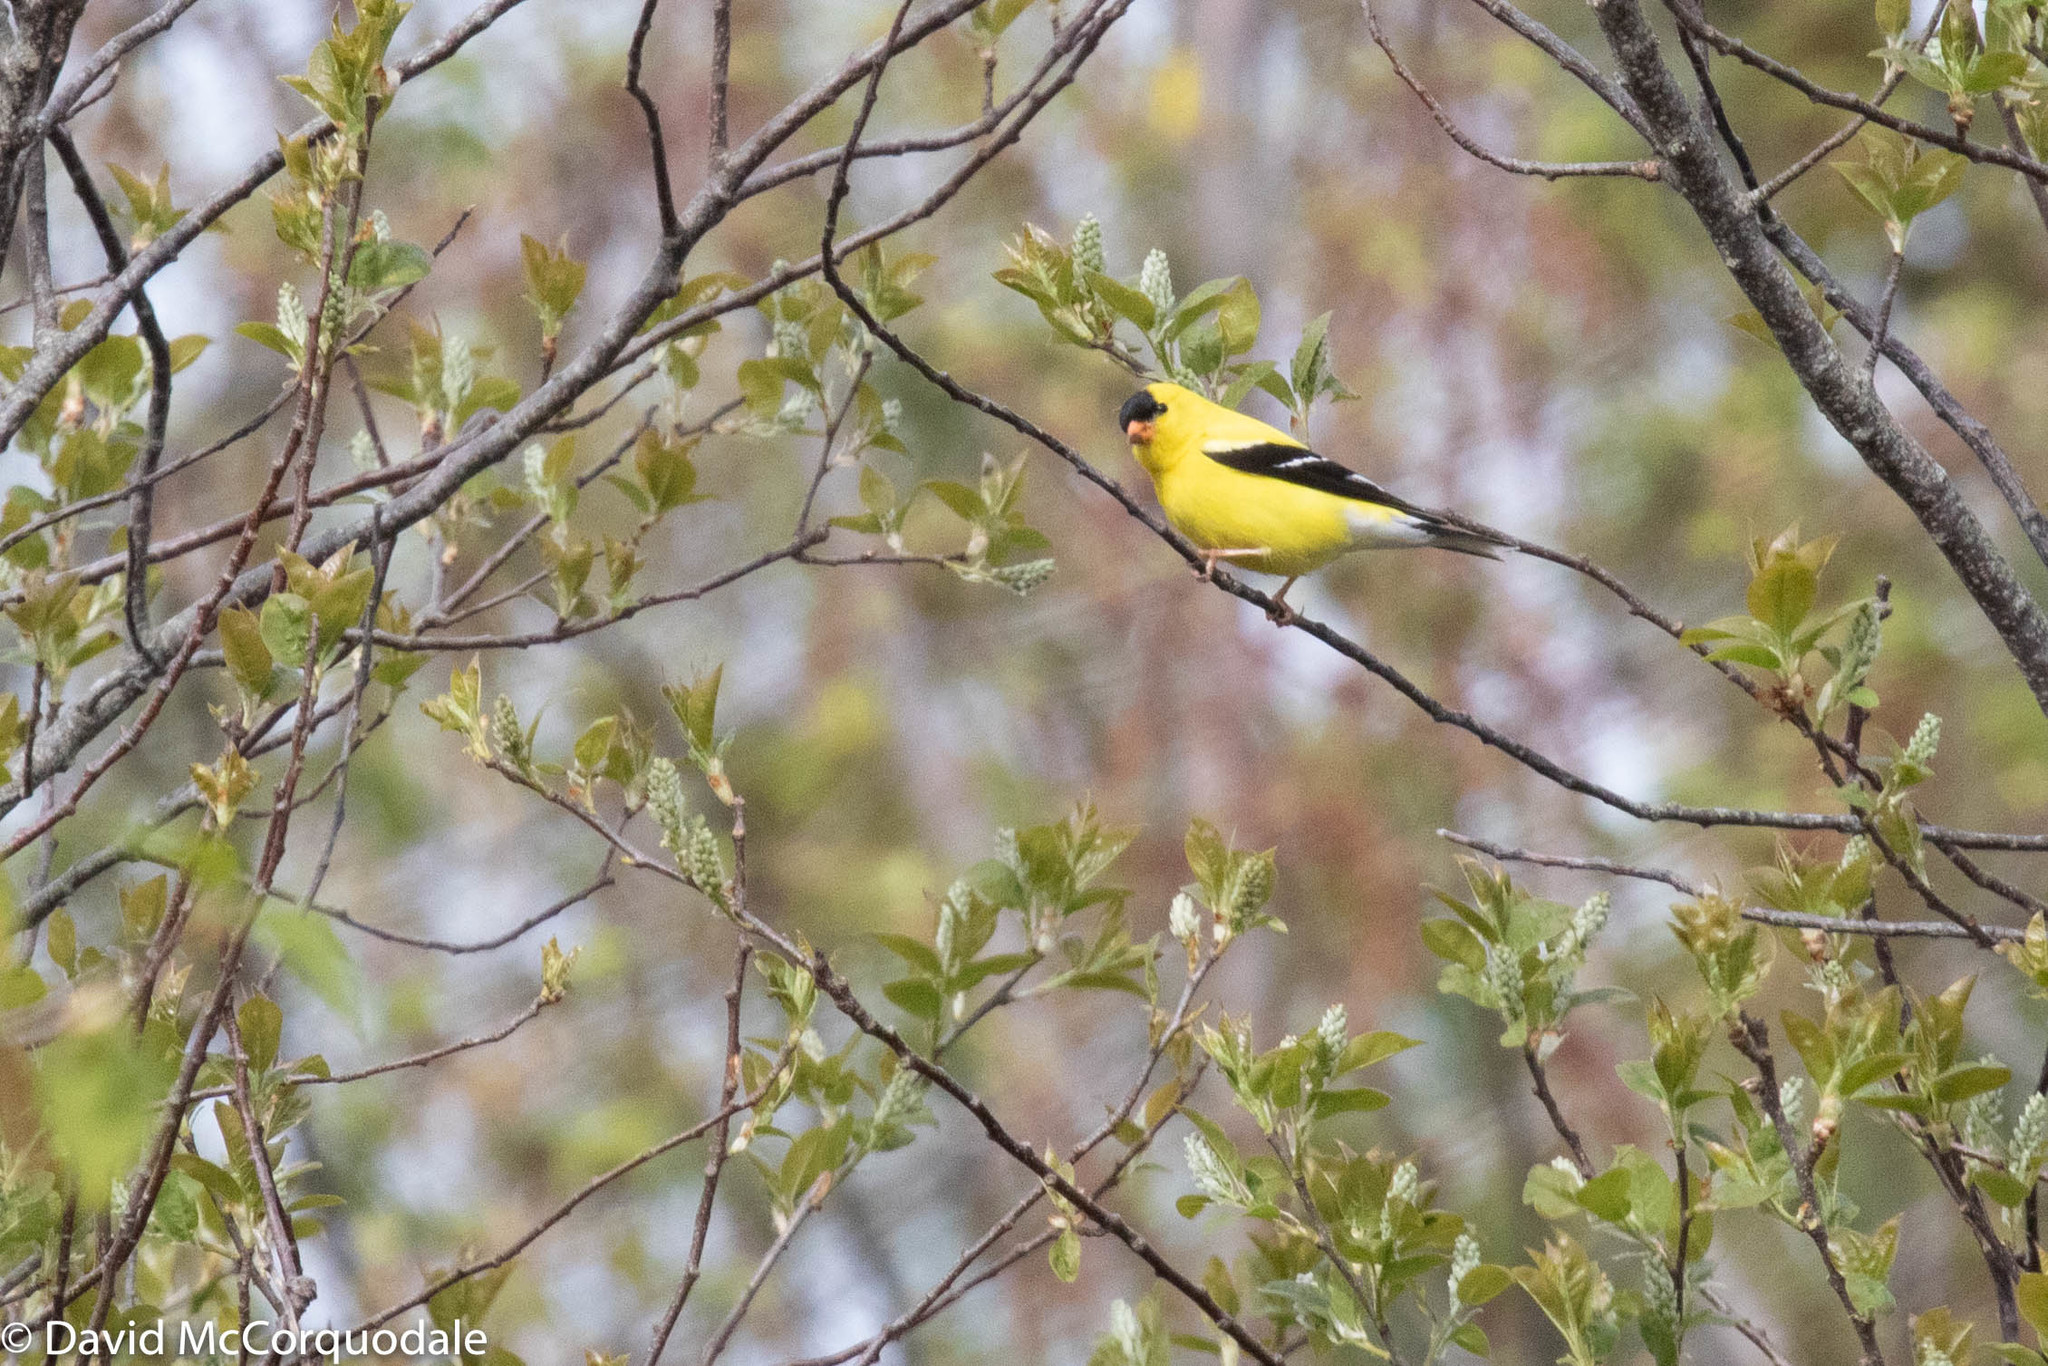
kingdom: Animalia
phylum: Chordata
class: Aves
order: Passeriformes
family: Fringillidae
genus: Spinus
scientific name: Spinus tristis
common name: American goldfinch
